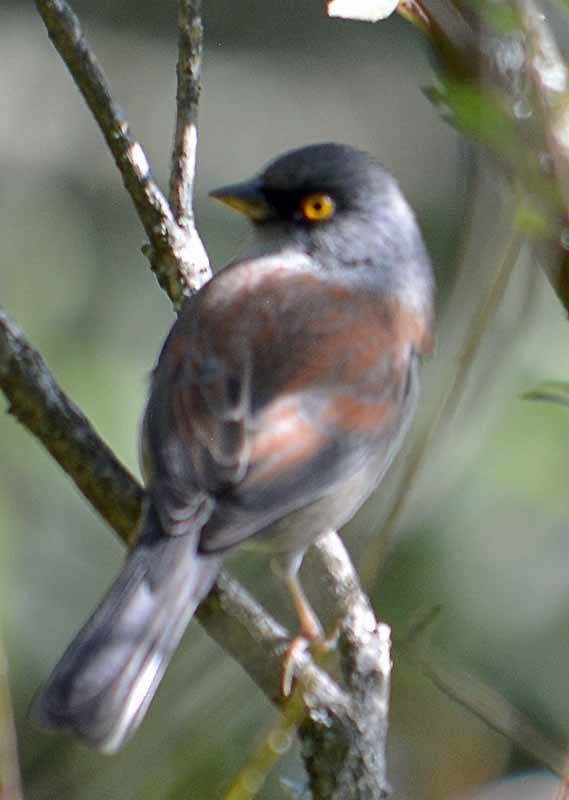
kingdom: Animalia
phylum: Chordata
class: Aves
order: Passeriformes
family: Passerellidae
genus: Junco
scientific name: Junco phaeonotus
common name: Yellow-eyed junco
